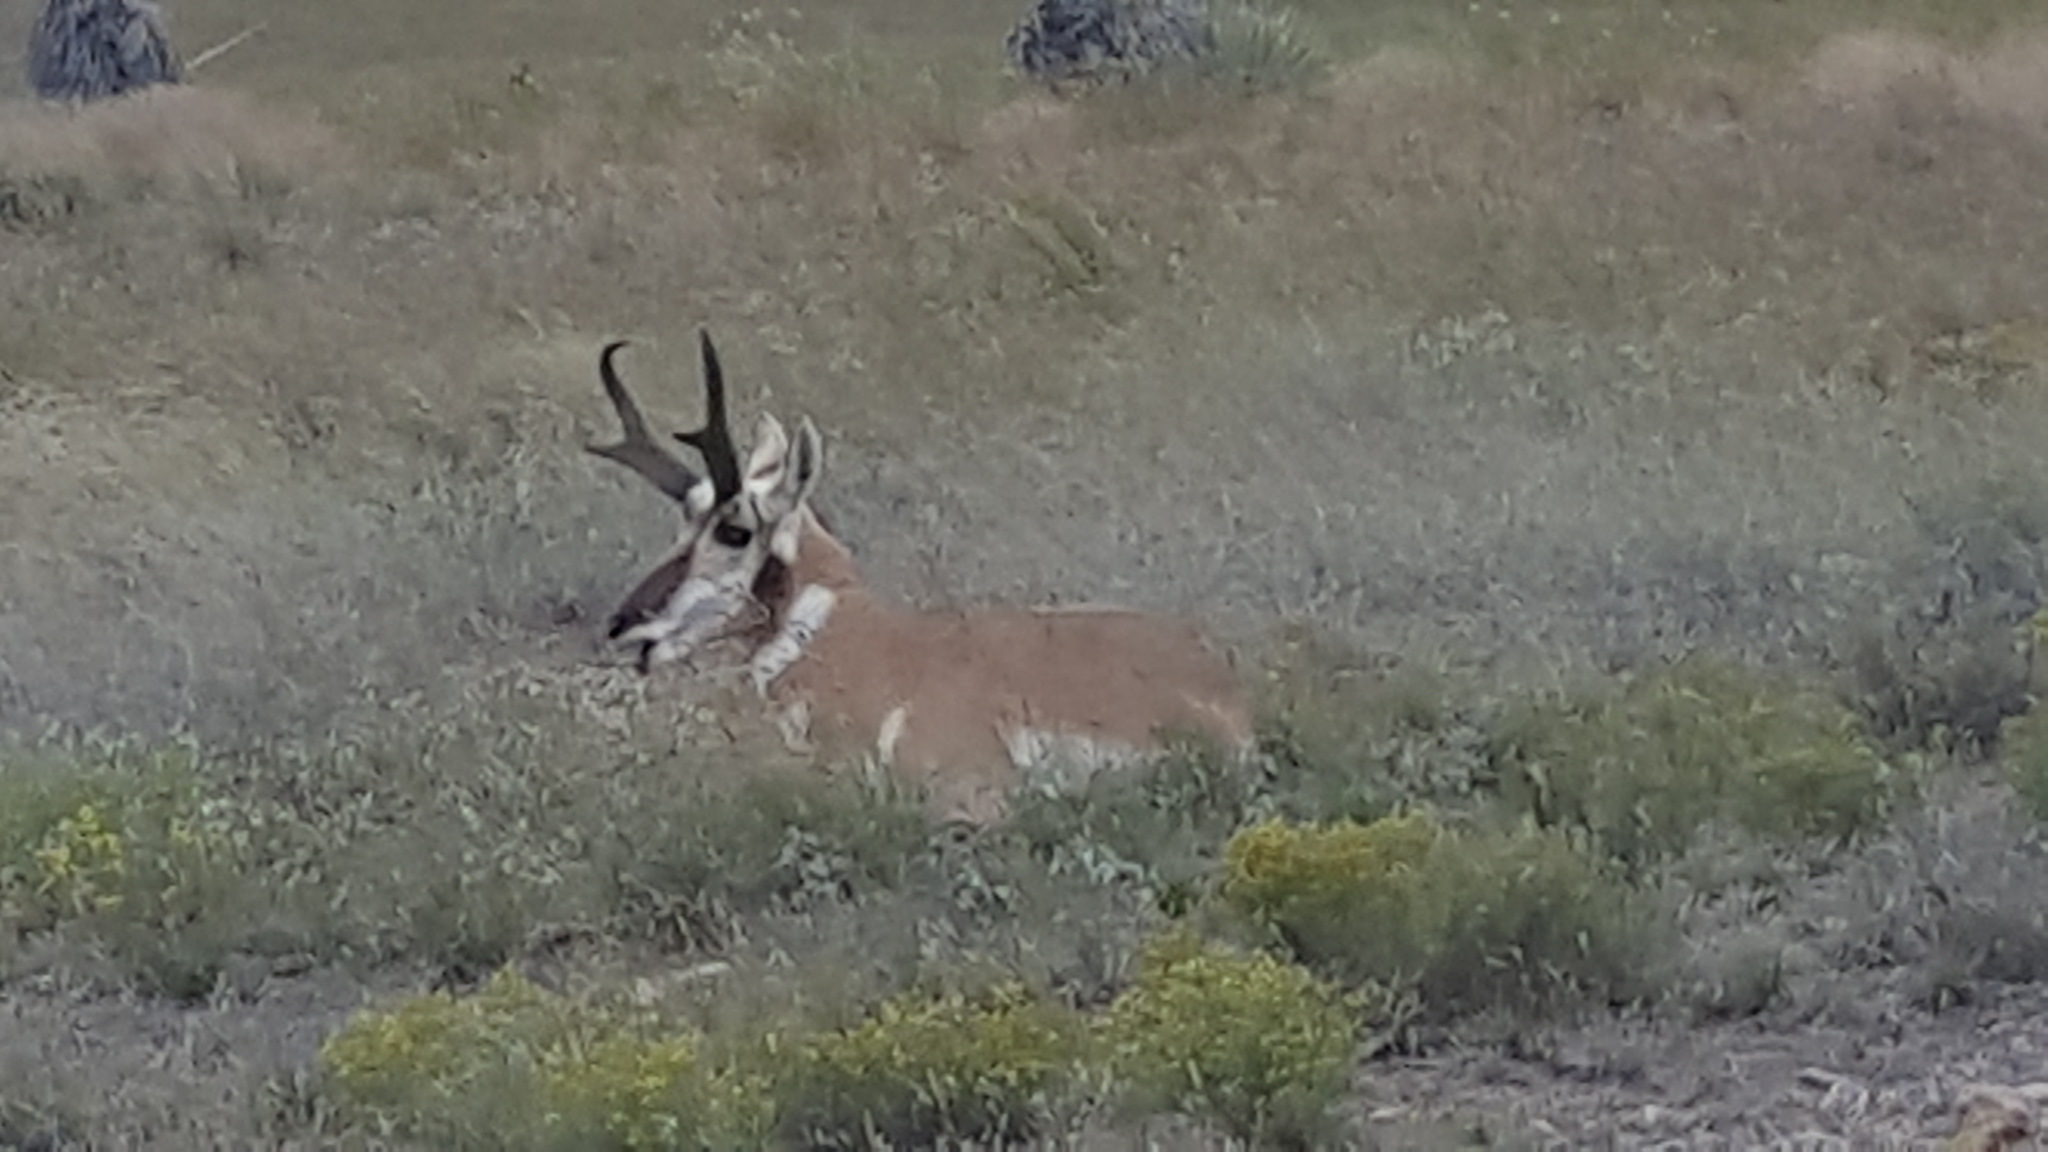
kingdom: Animalia
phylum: Chordata
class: Mammalia
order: Artiodactyla
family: Antilocapridae
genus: Antilocapra
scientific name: Antilocapra americana
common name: Pronghorn
